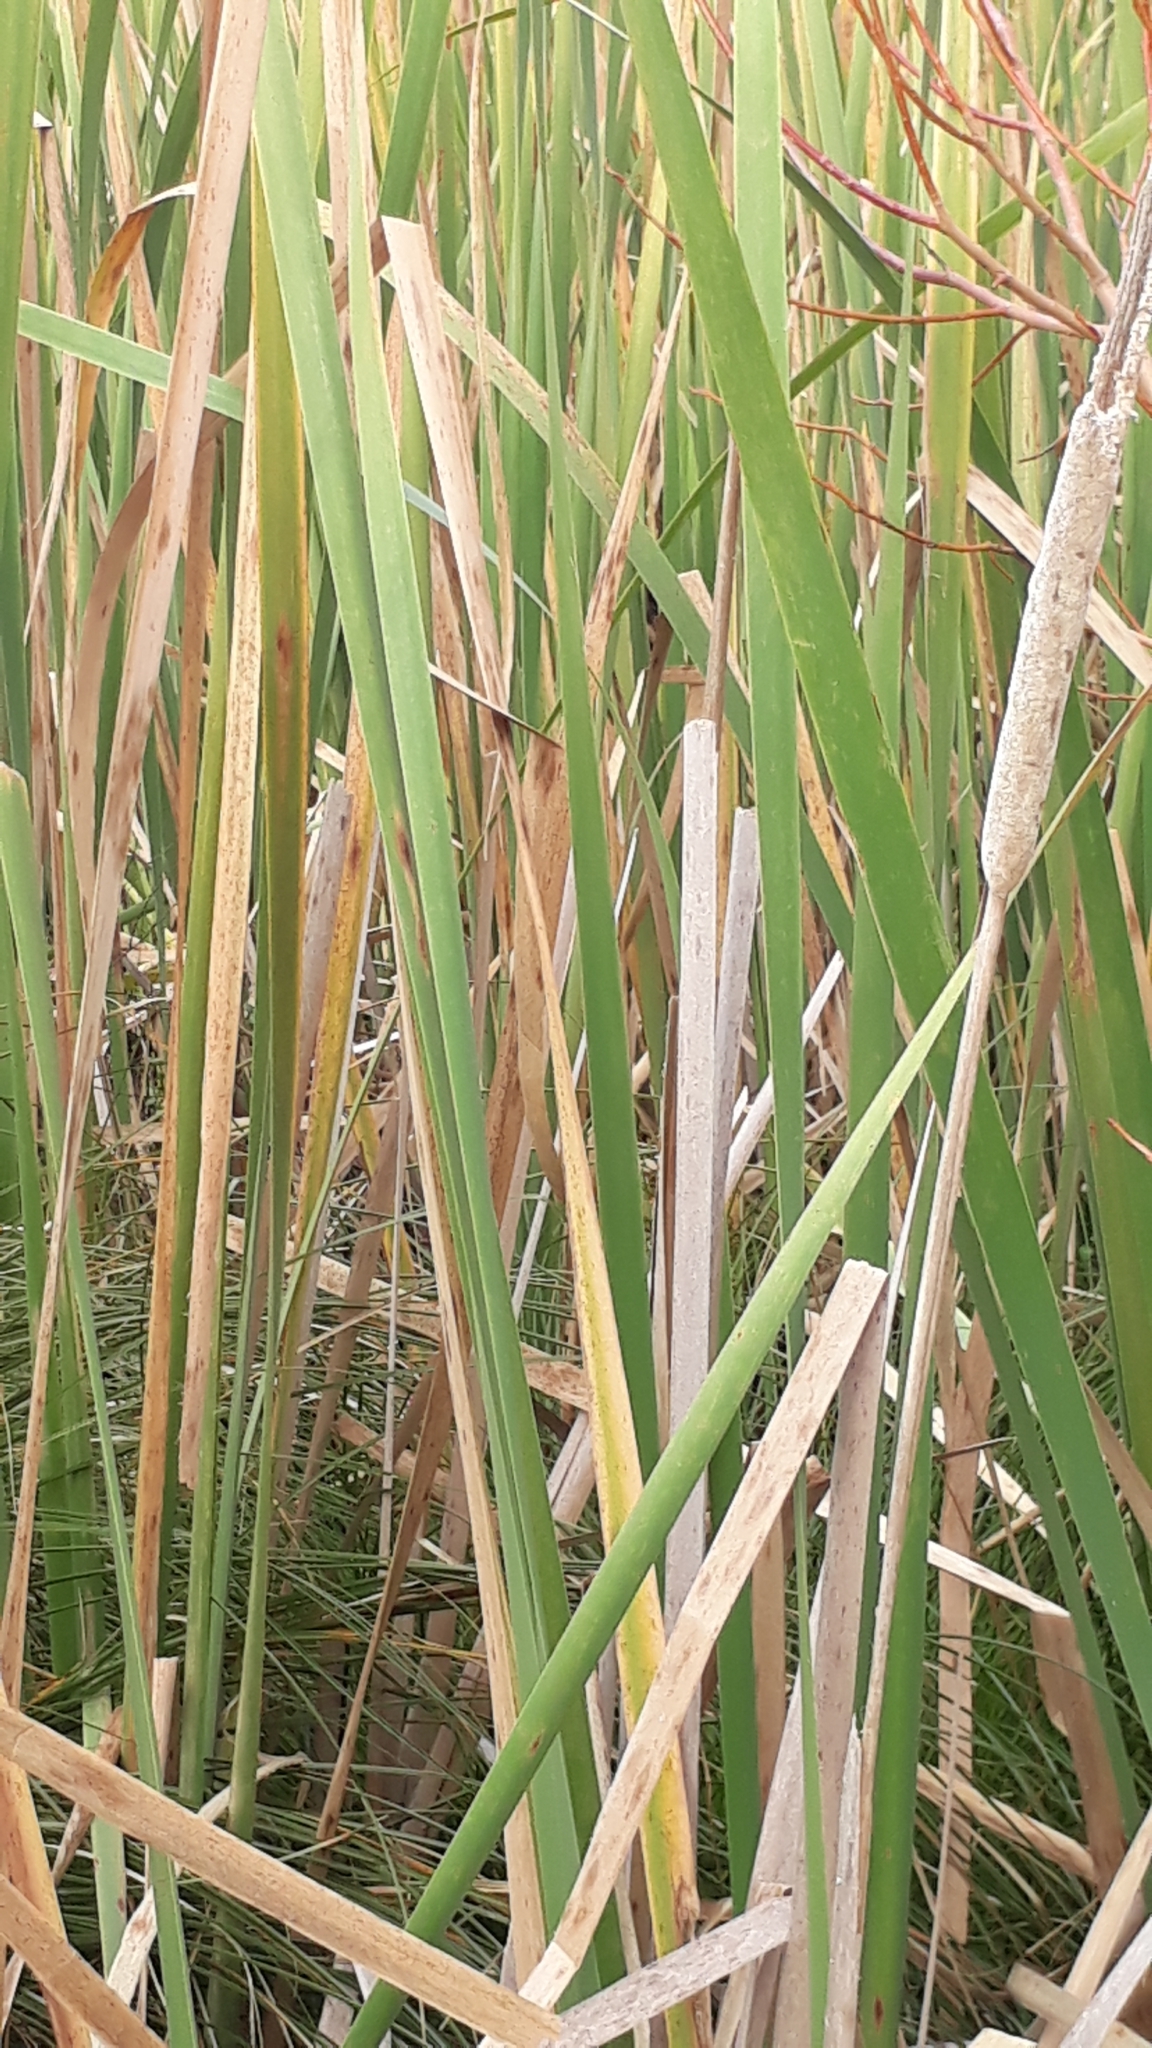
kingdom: Plantae
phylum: Tracheophyta
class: Liliopsida
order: Poales
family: Typhaceae
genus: Typha
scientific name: Typha orientalis
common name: Bullrush
